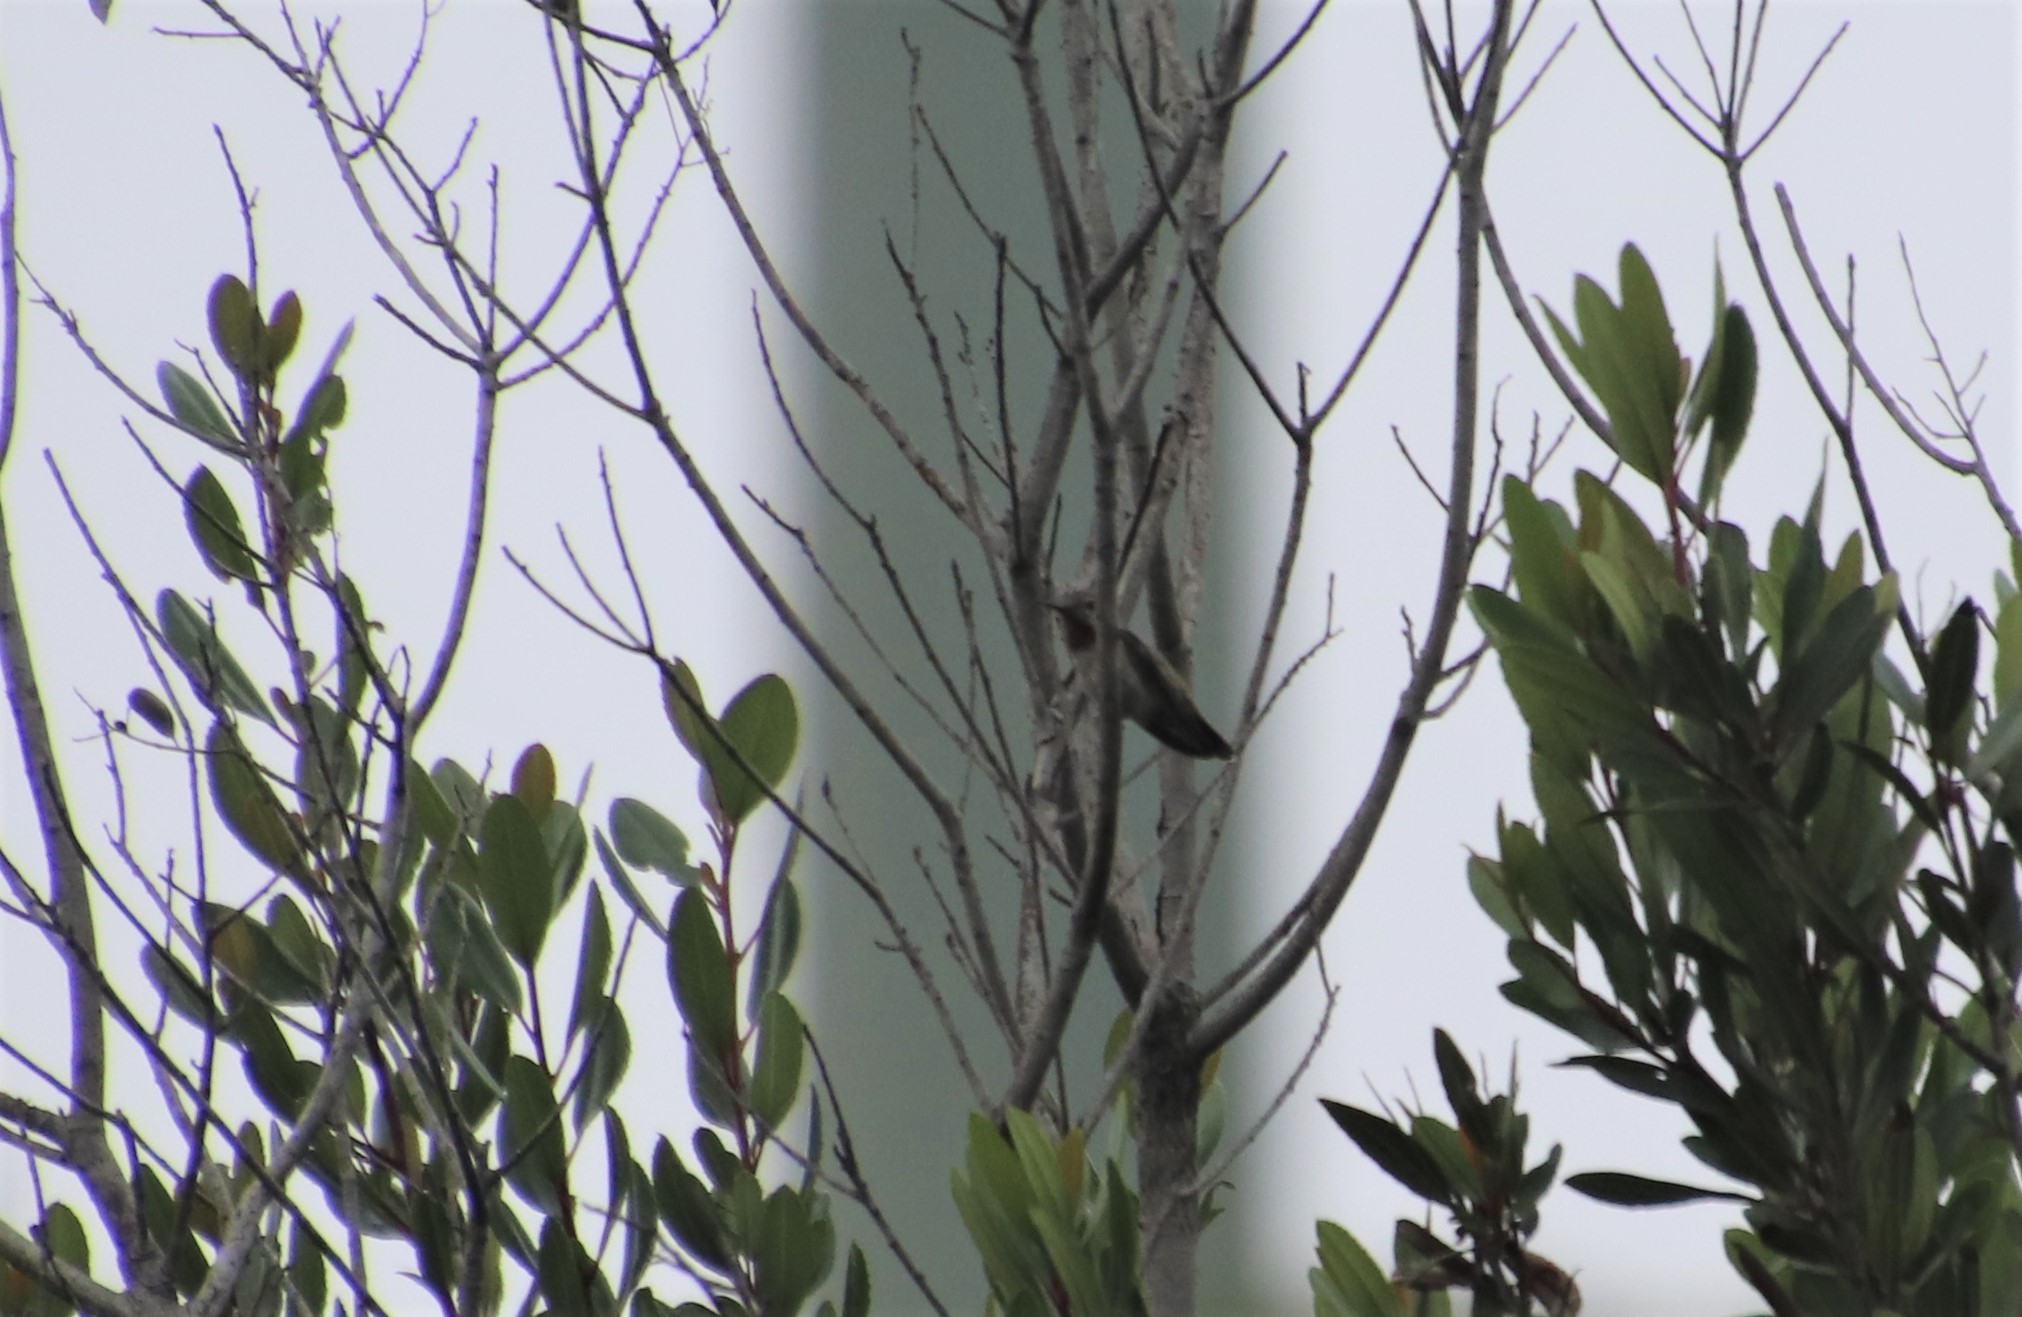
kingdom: Animalia
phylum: Chordata
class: Aves
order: Apodiformes
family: Trochilidae
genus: Calypte
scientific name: Calypte anna
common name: Anna's hummingbird
